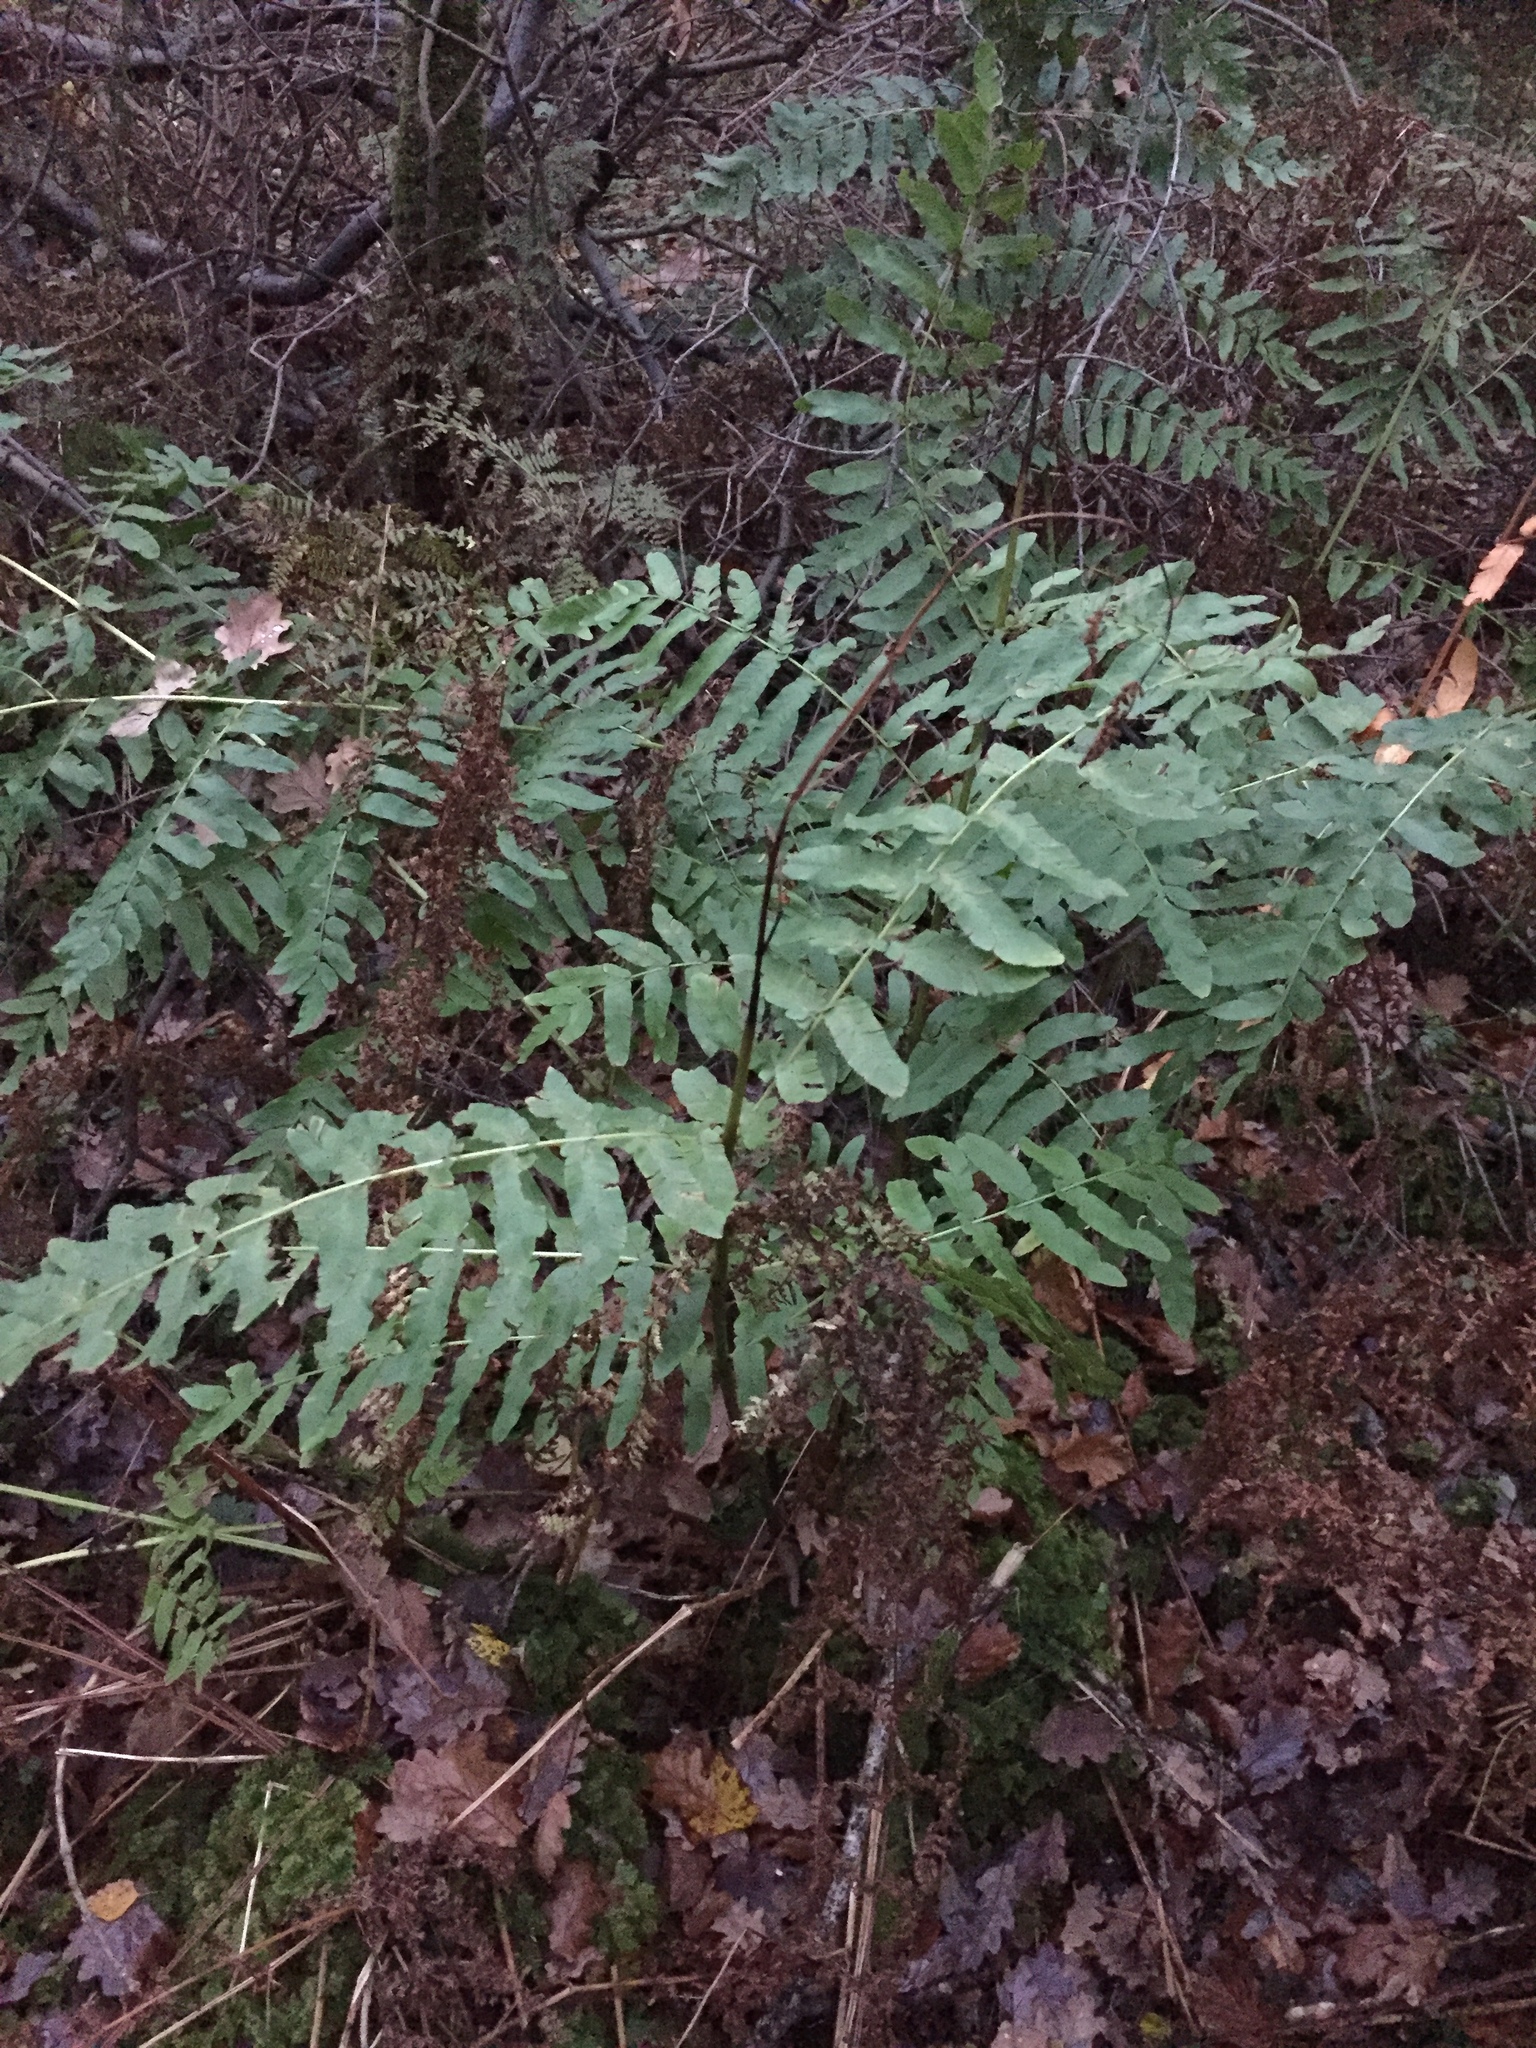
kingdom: Plantae
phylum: Tracheophyta
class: Polypodiopsida
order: Osmundales
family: Osmundaceae
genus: Osmunda
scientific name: Osmunda regalis
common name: Royal fern
